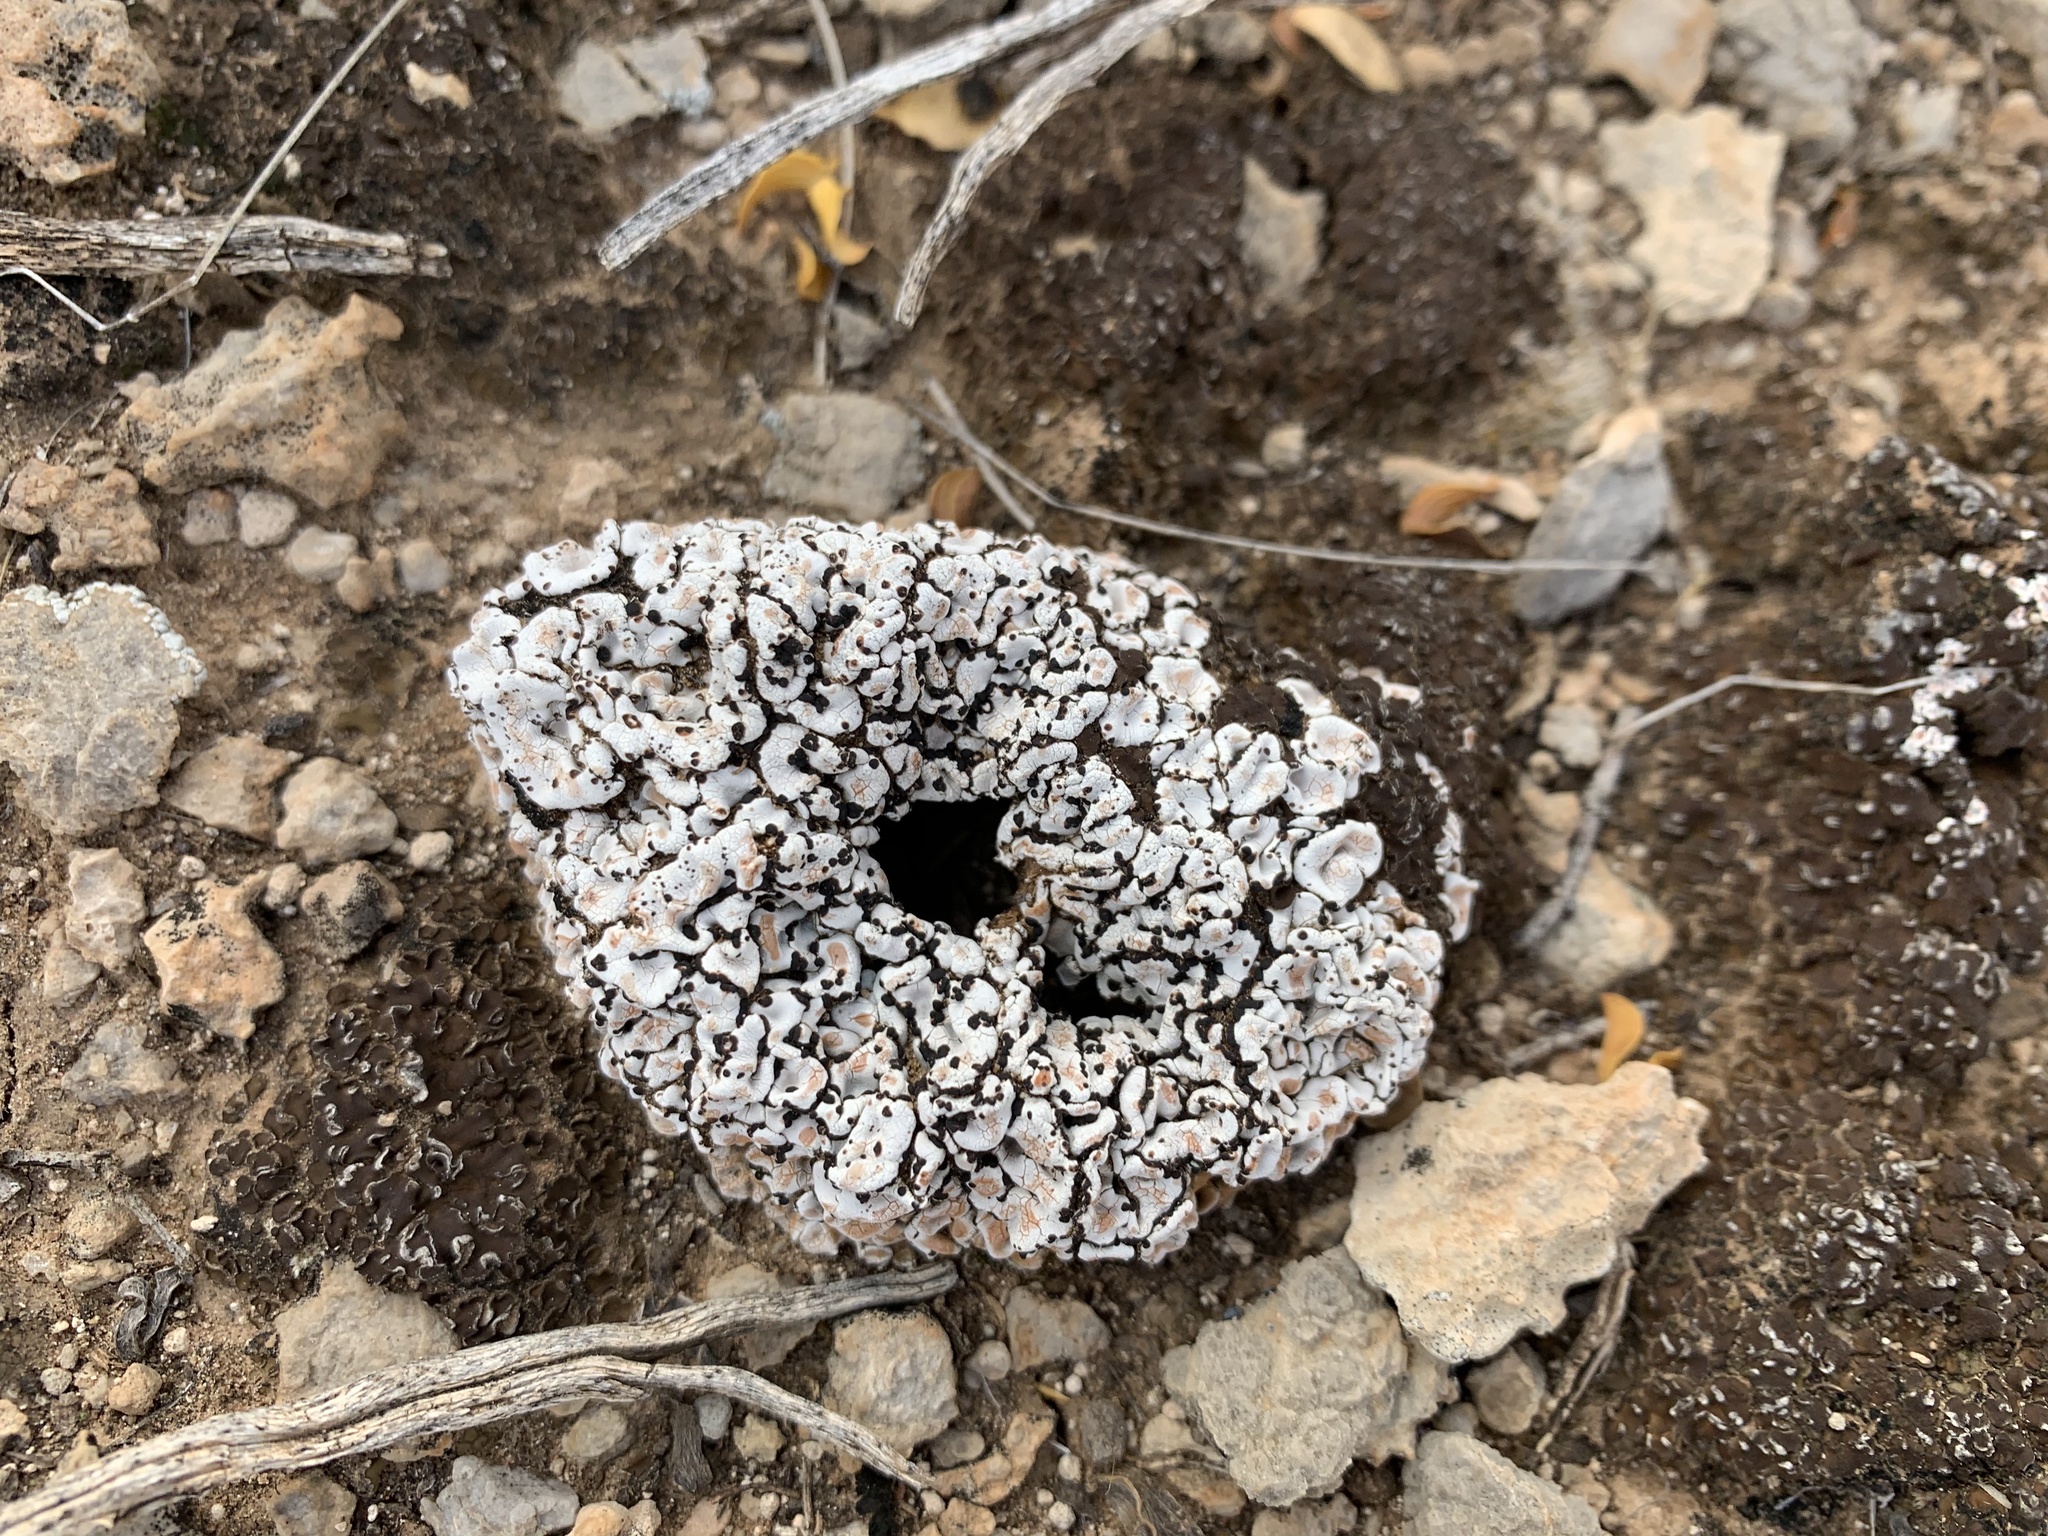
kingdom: Fungi
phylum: Ascomycota
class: Lecanoromycetes
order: Lecanorales
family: Psoraceae
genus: Psora
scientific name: Psora cerebriformis
